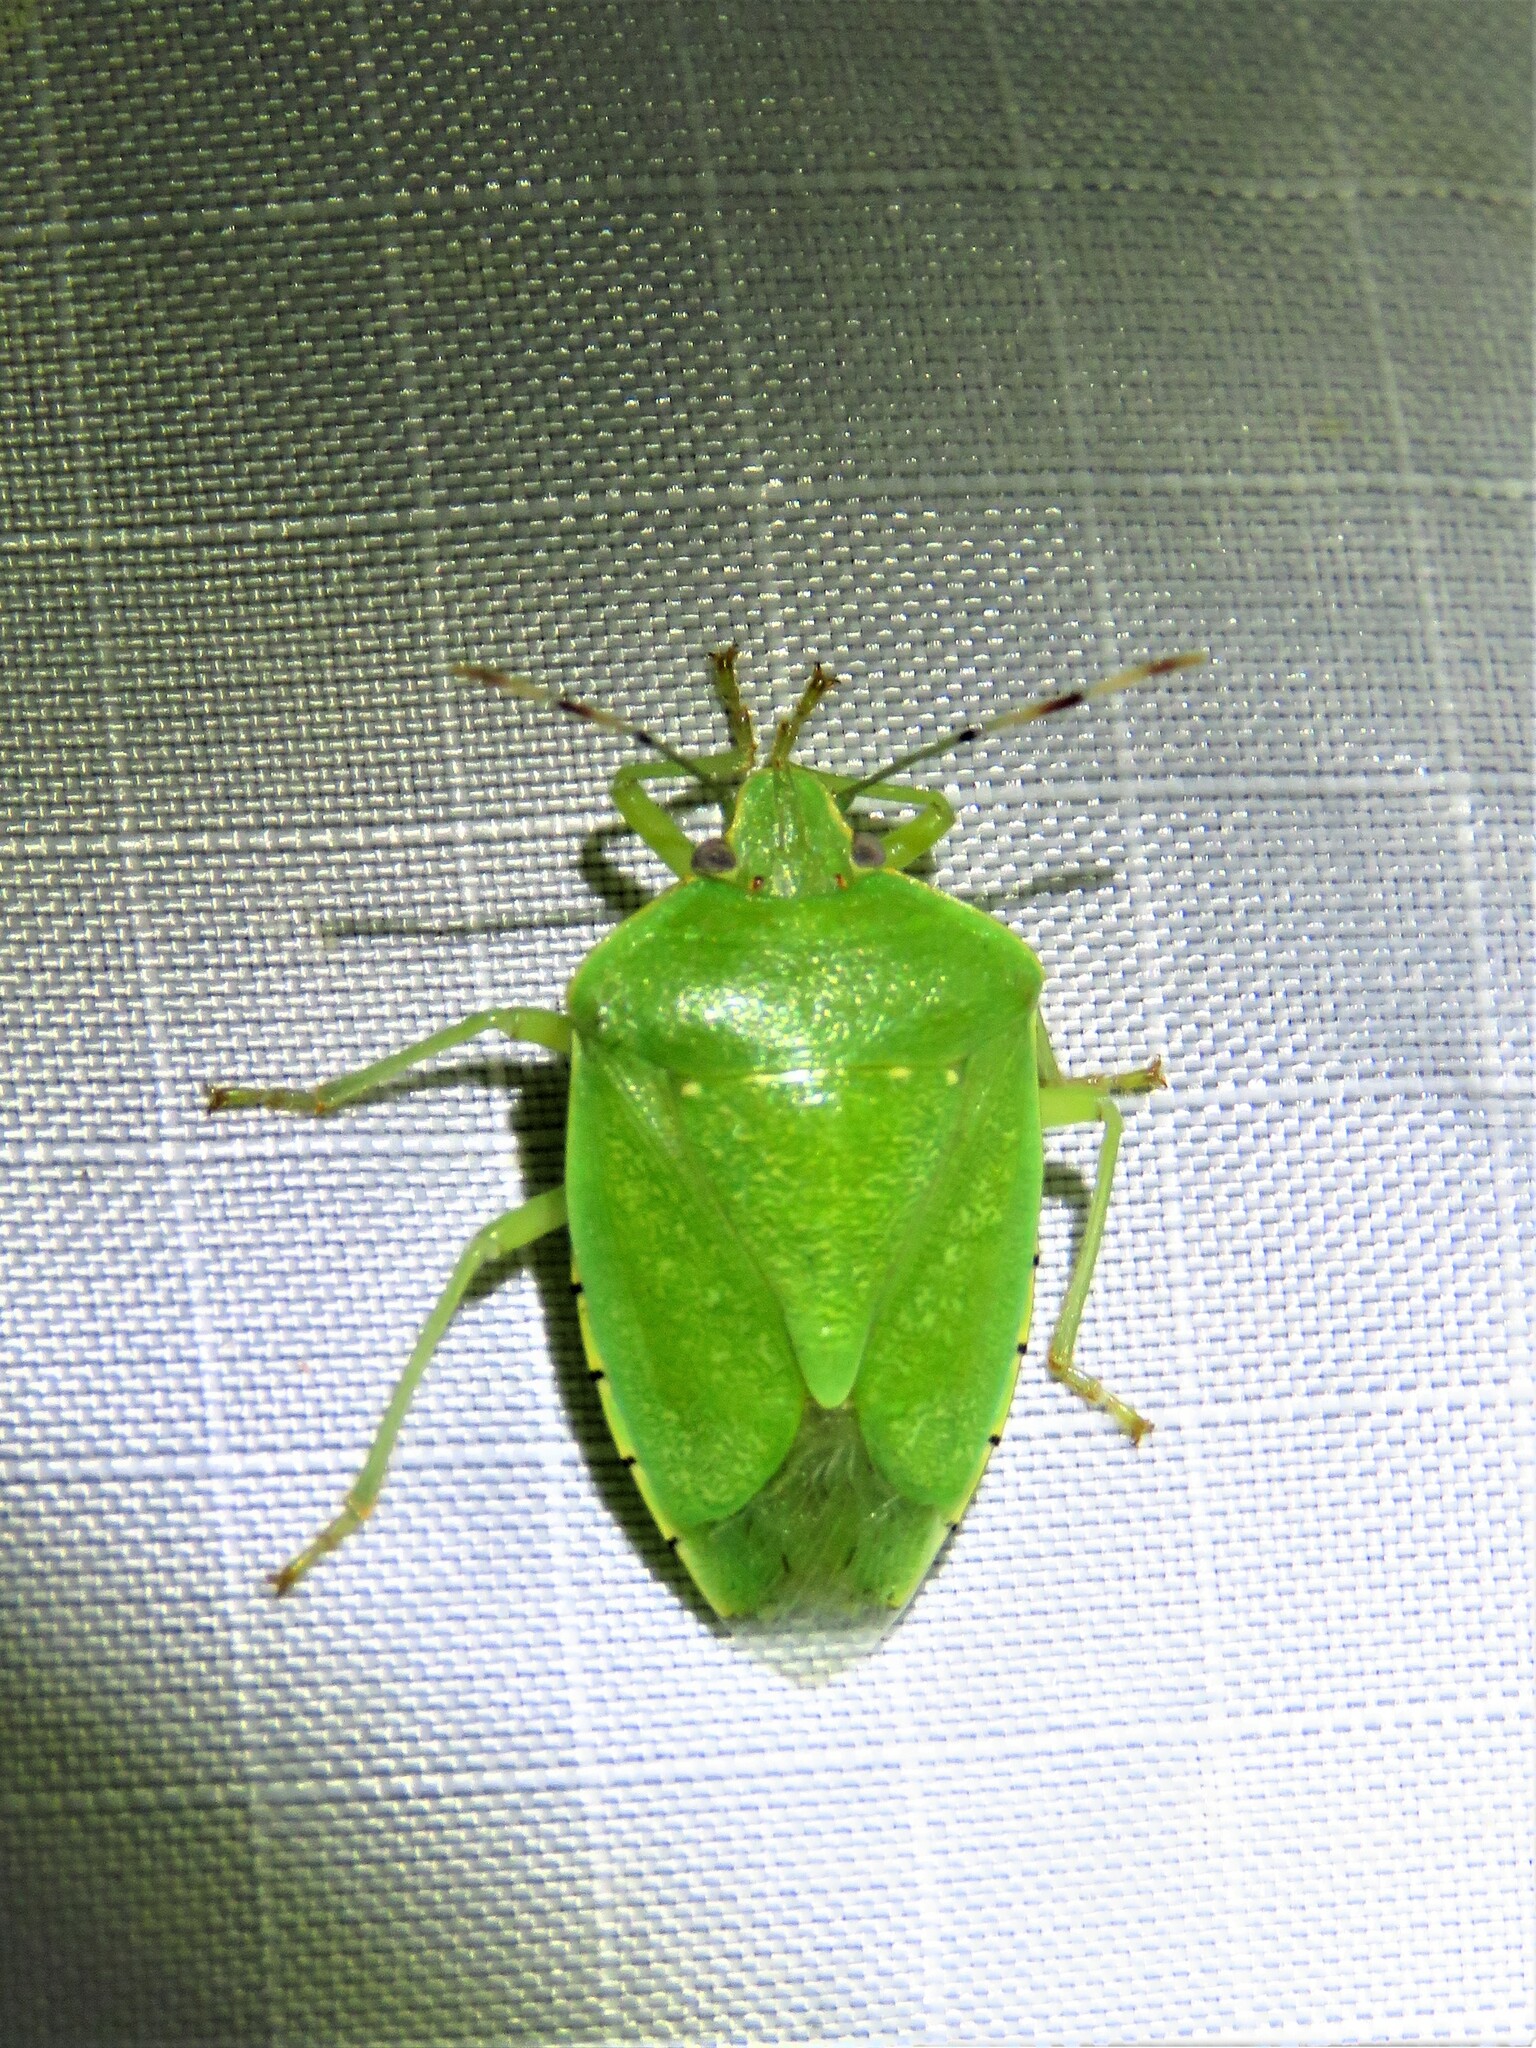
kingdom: Animalia
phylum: Arthropoda
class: Insecta
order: Hemiptera
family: Pentatomidae
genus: Chinavia
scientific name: Chinavia hilaris
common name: Green stink bug
